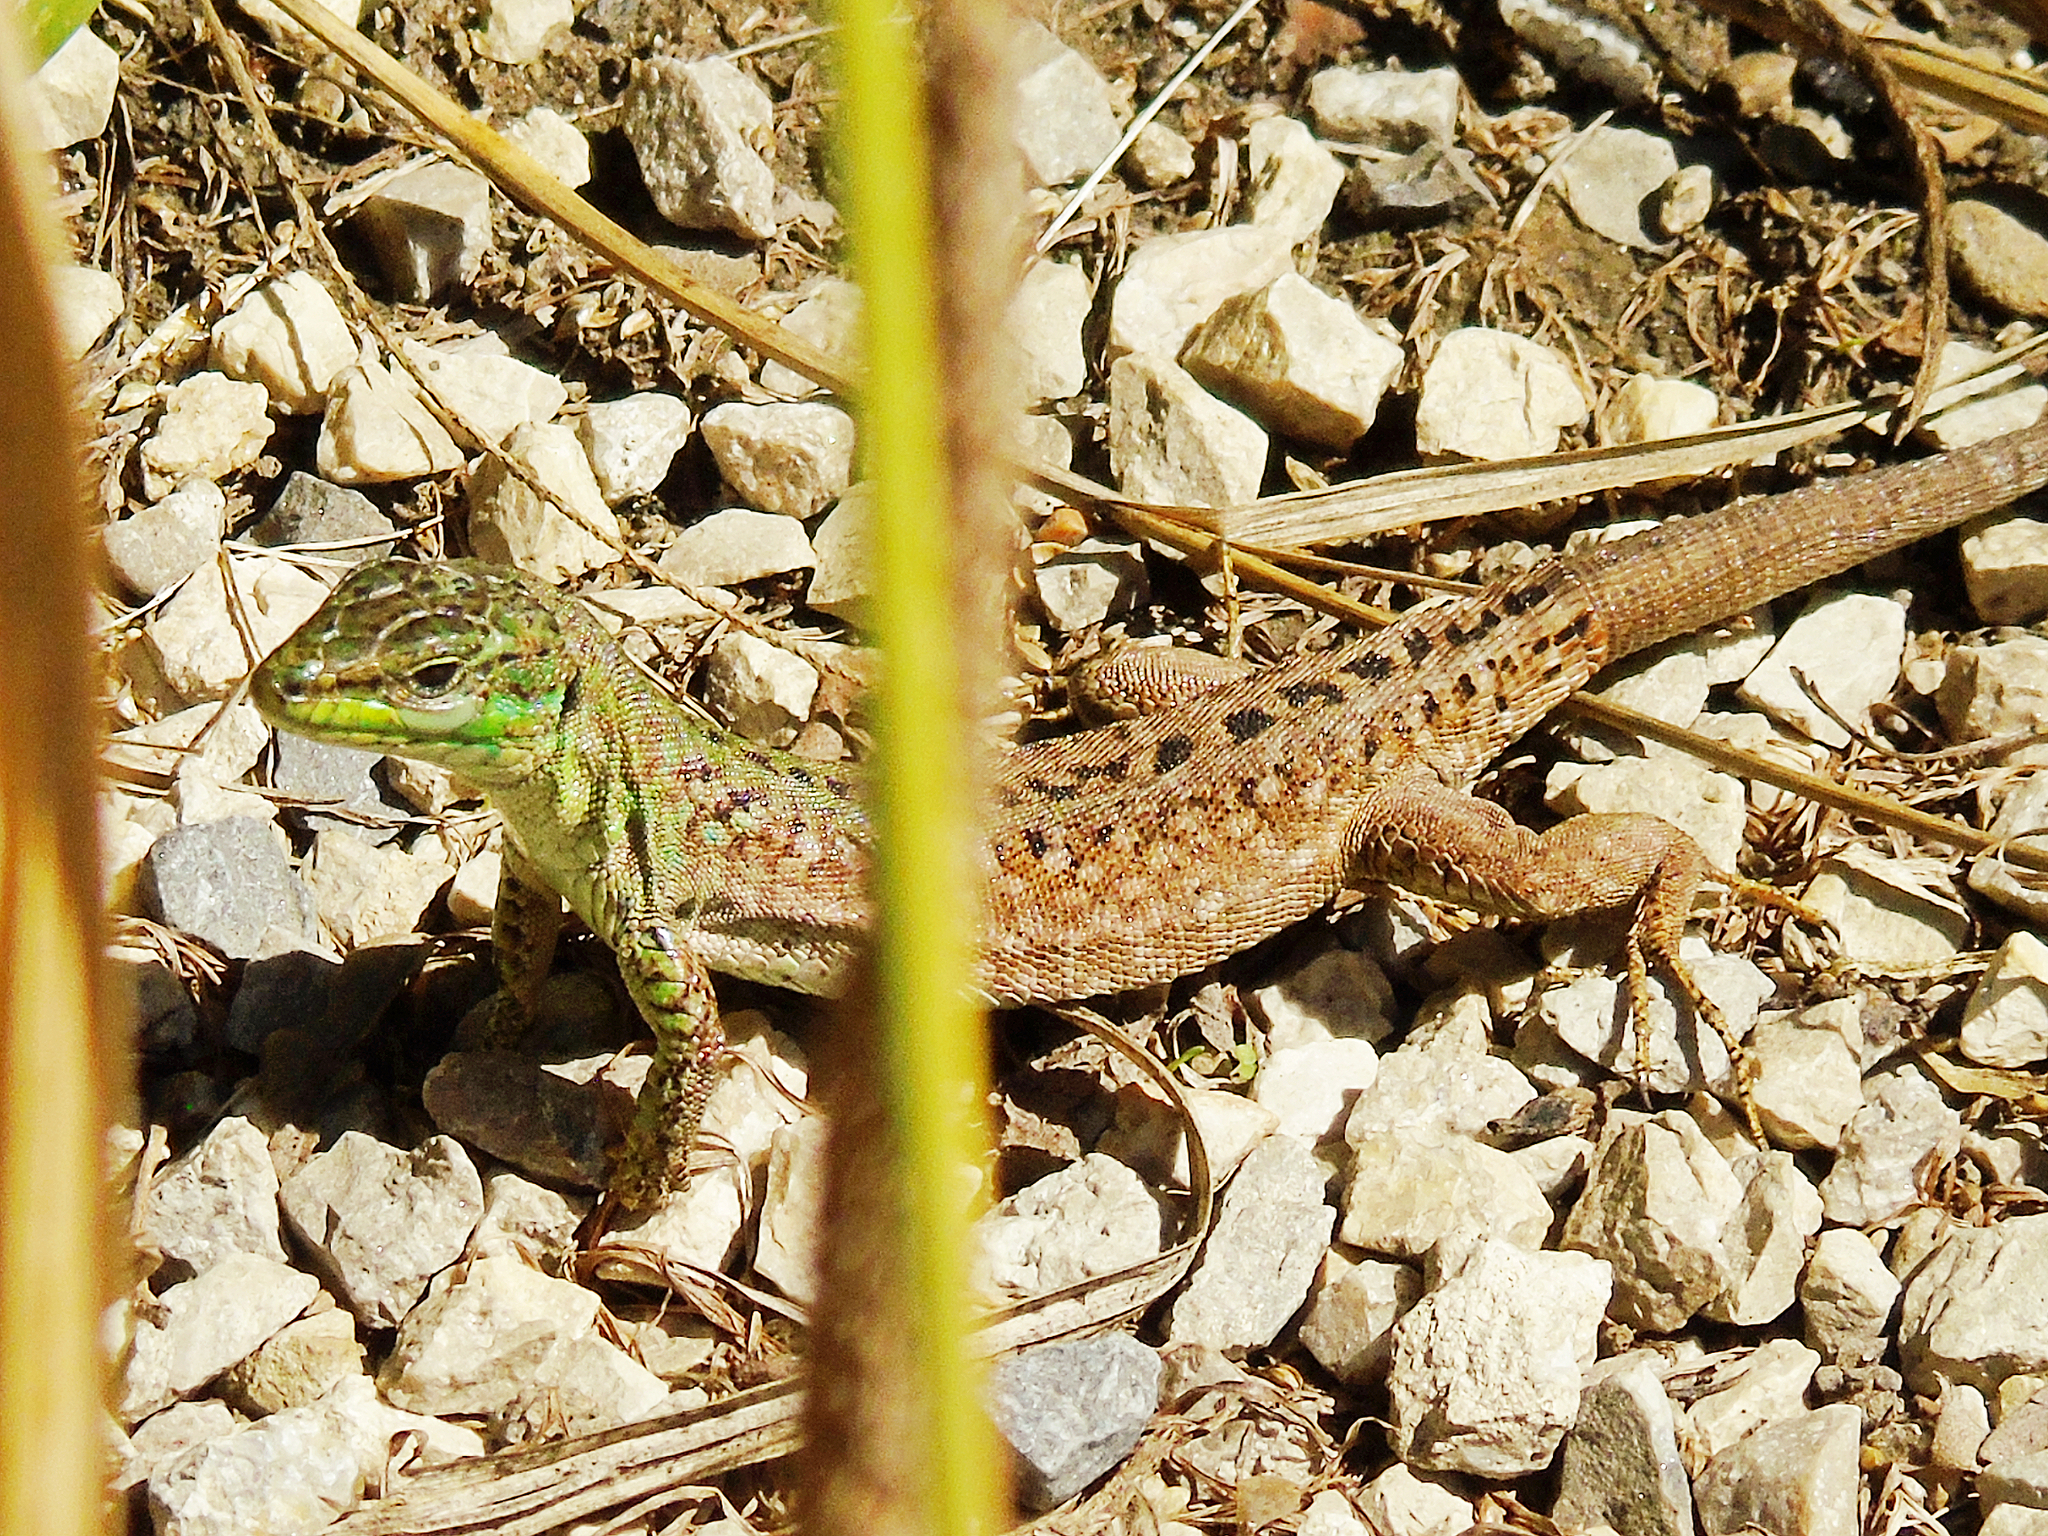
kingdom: Animalia
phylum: Chordata
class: Squamata
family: Lacertidae
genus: Podarcis
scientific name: Podarcis siculus
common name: Italian wall lizard
